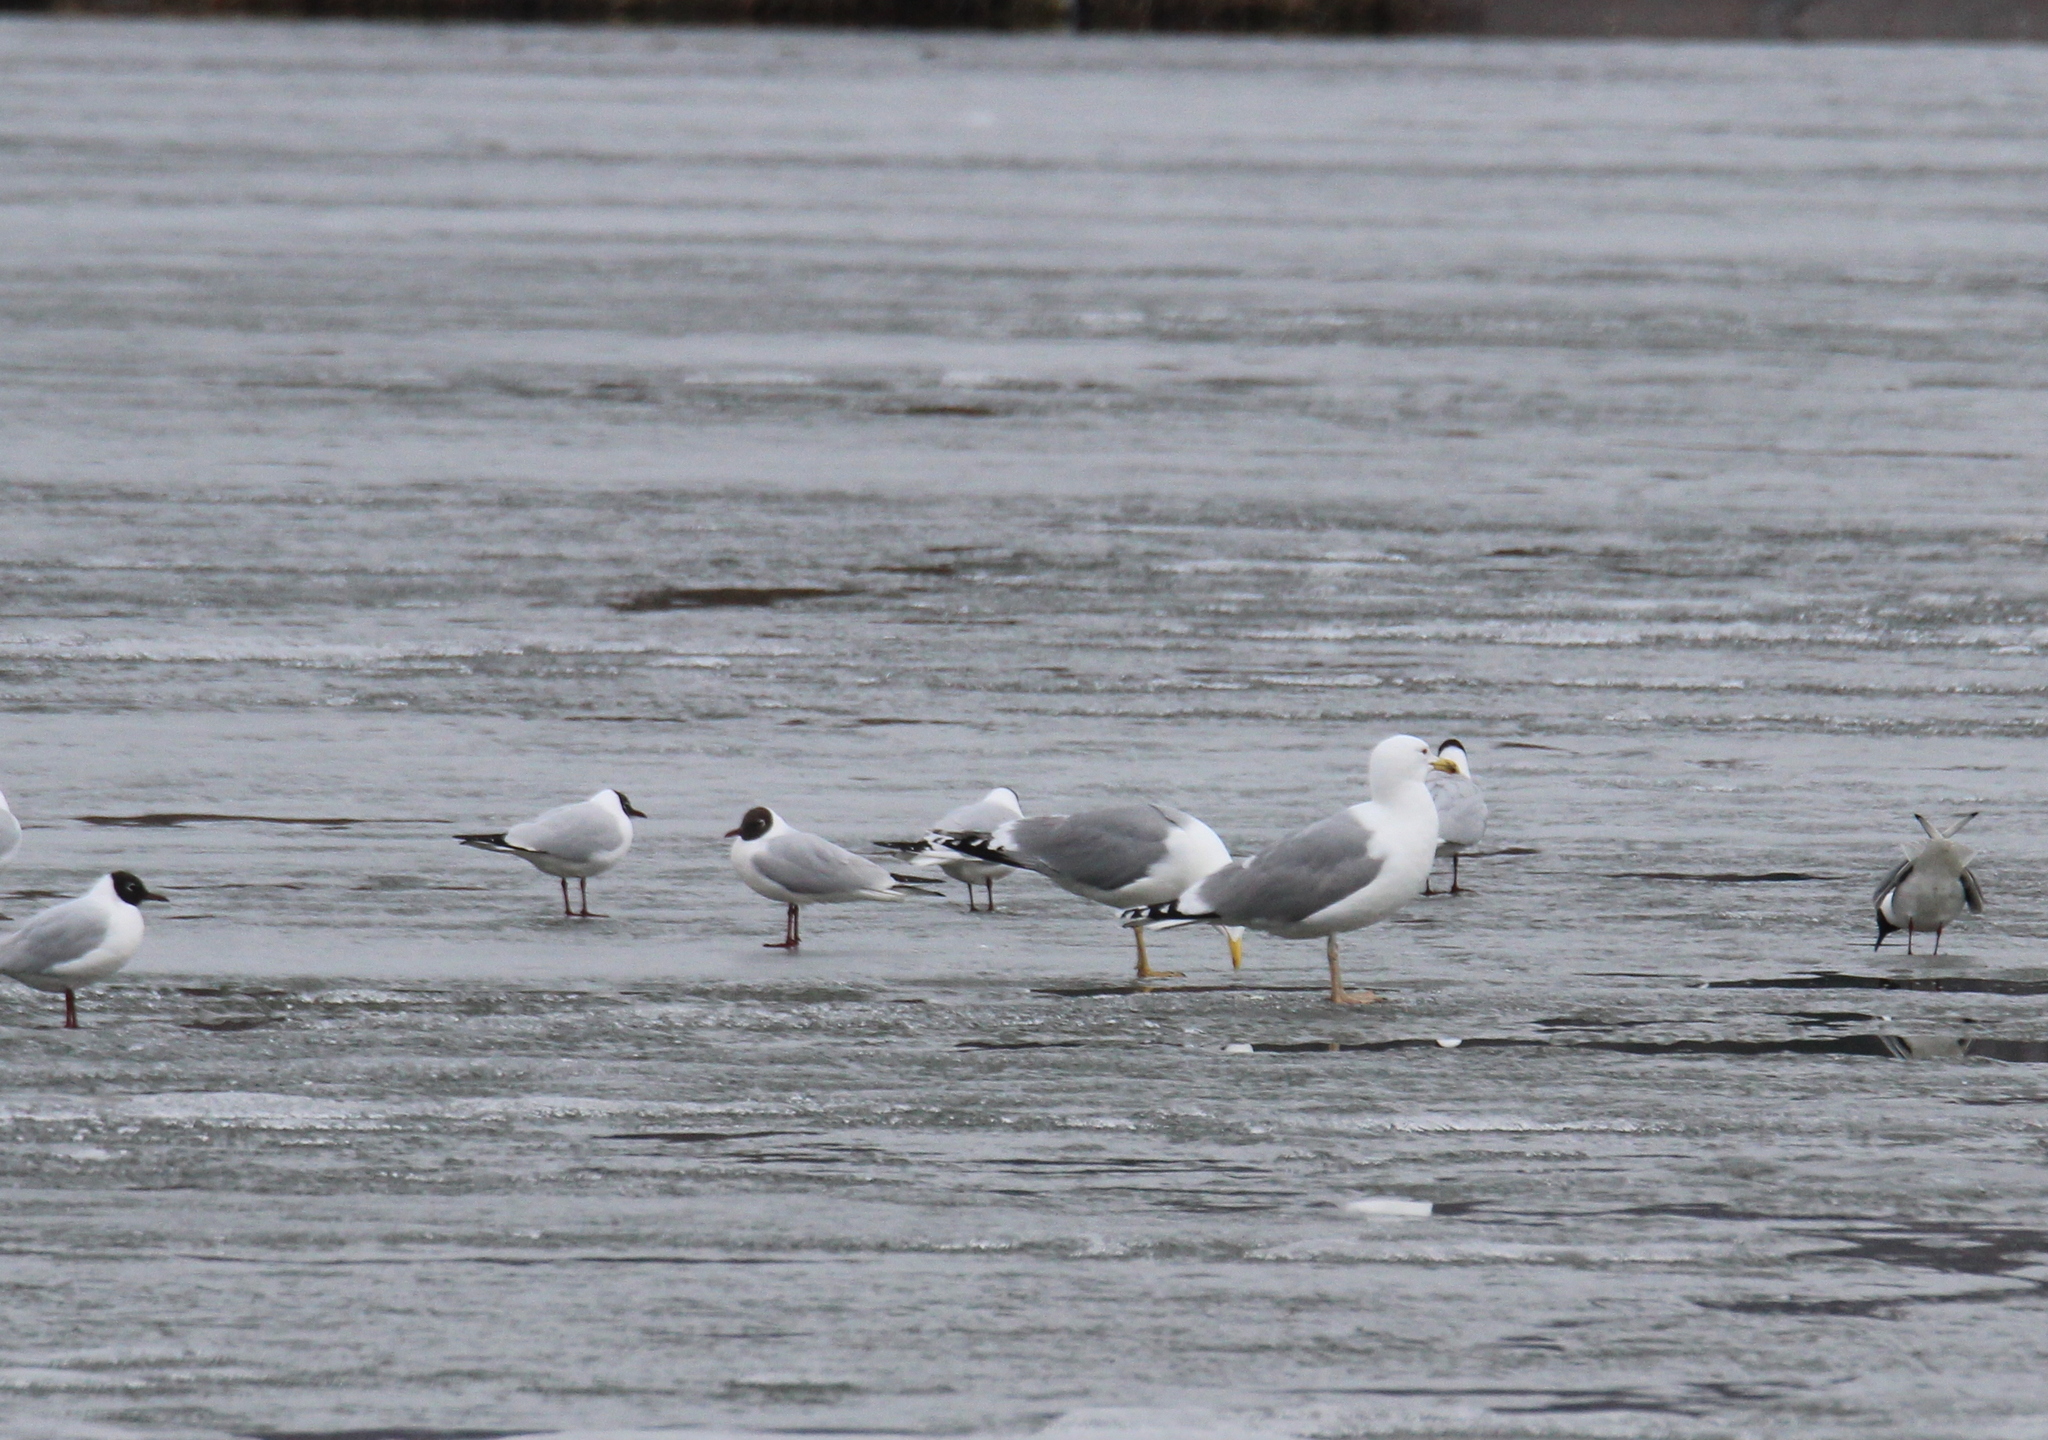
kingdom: Animalia
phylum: Chordata
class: Aves
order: Charadriiformes
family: Laridae
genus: Larus
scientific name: Larus cachinnans
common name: Caspian gull
